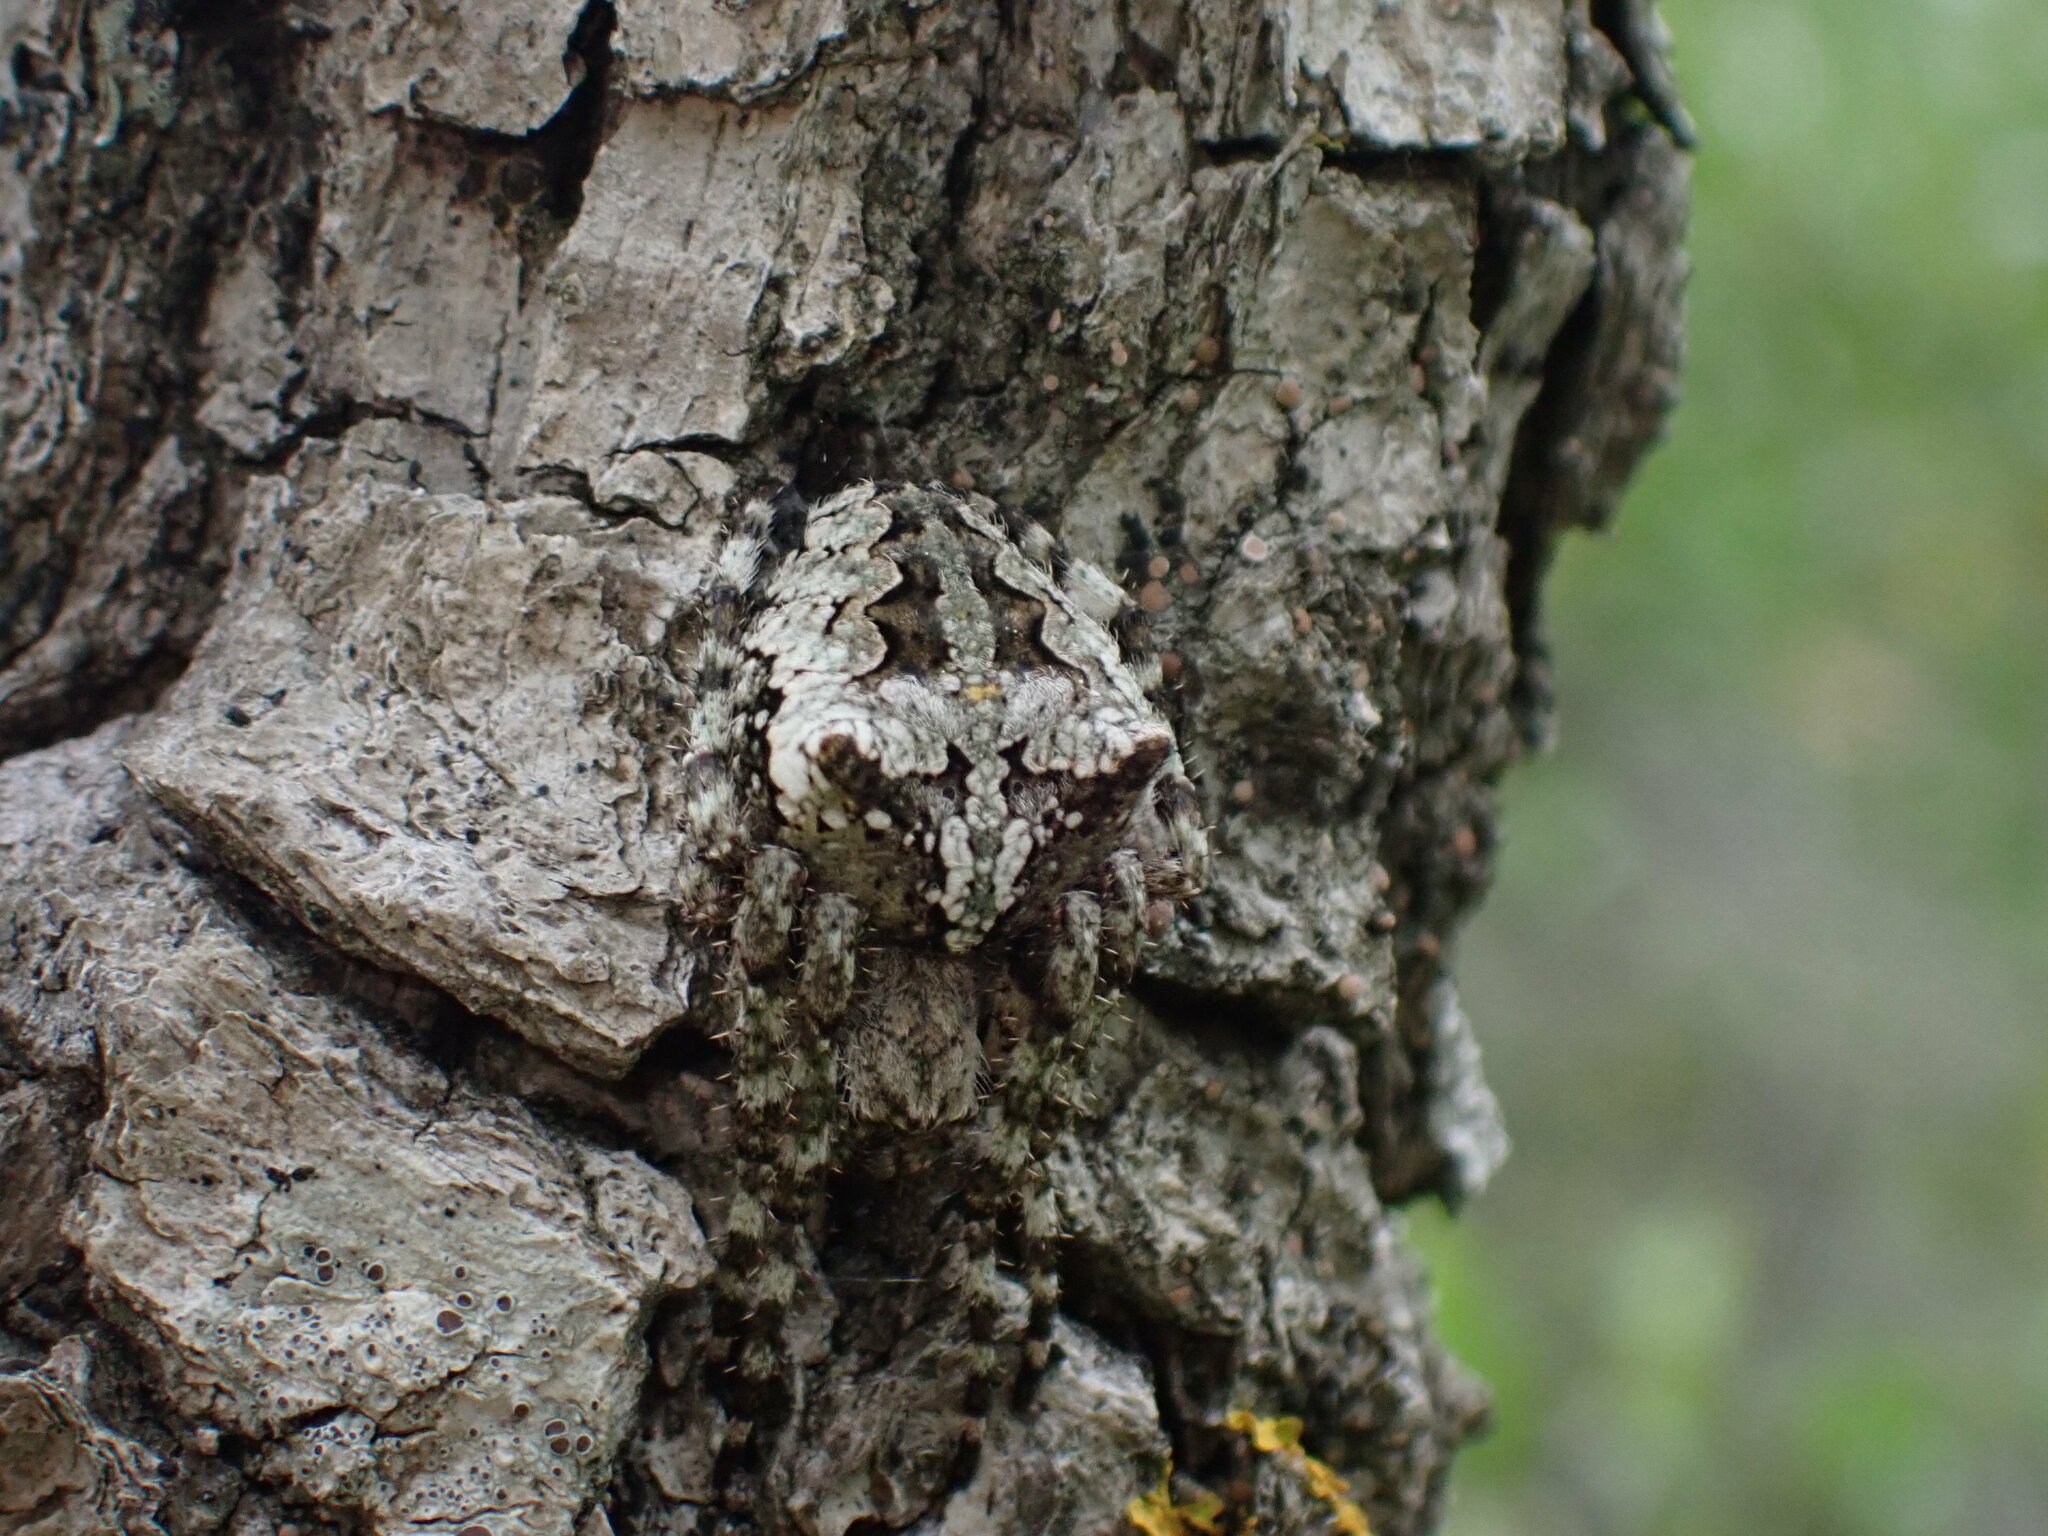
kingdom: Animalia
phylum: Arthropoda
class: Arachnida
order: Araneae
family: Araneidae
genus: Araneus
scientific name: Araneus circe
